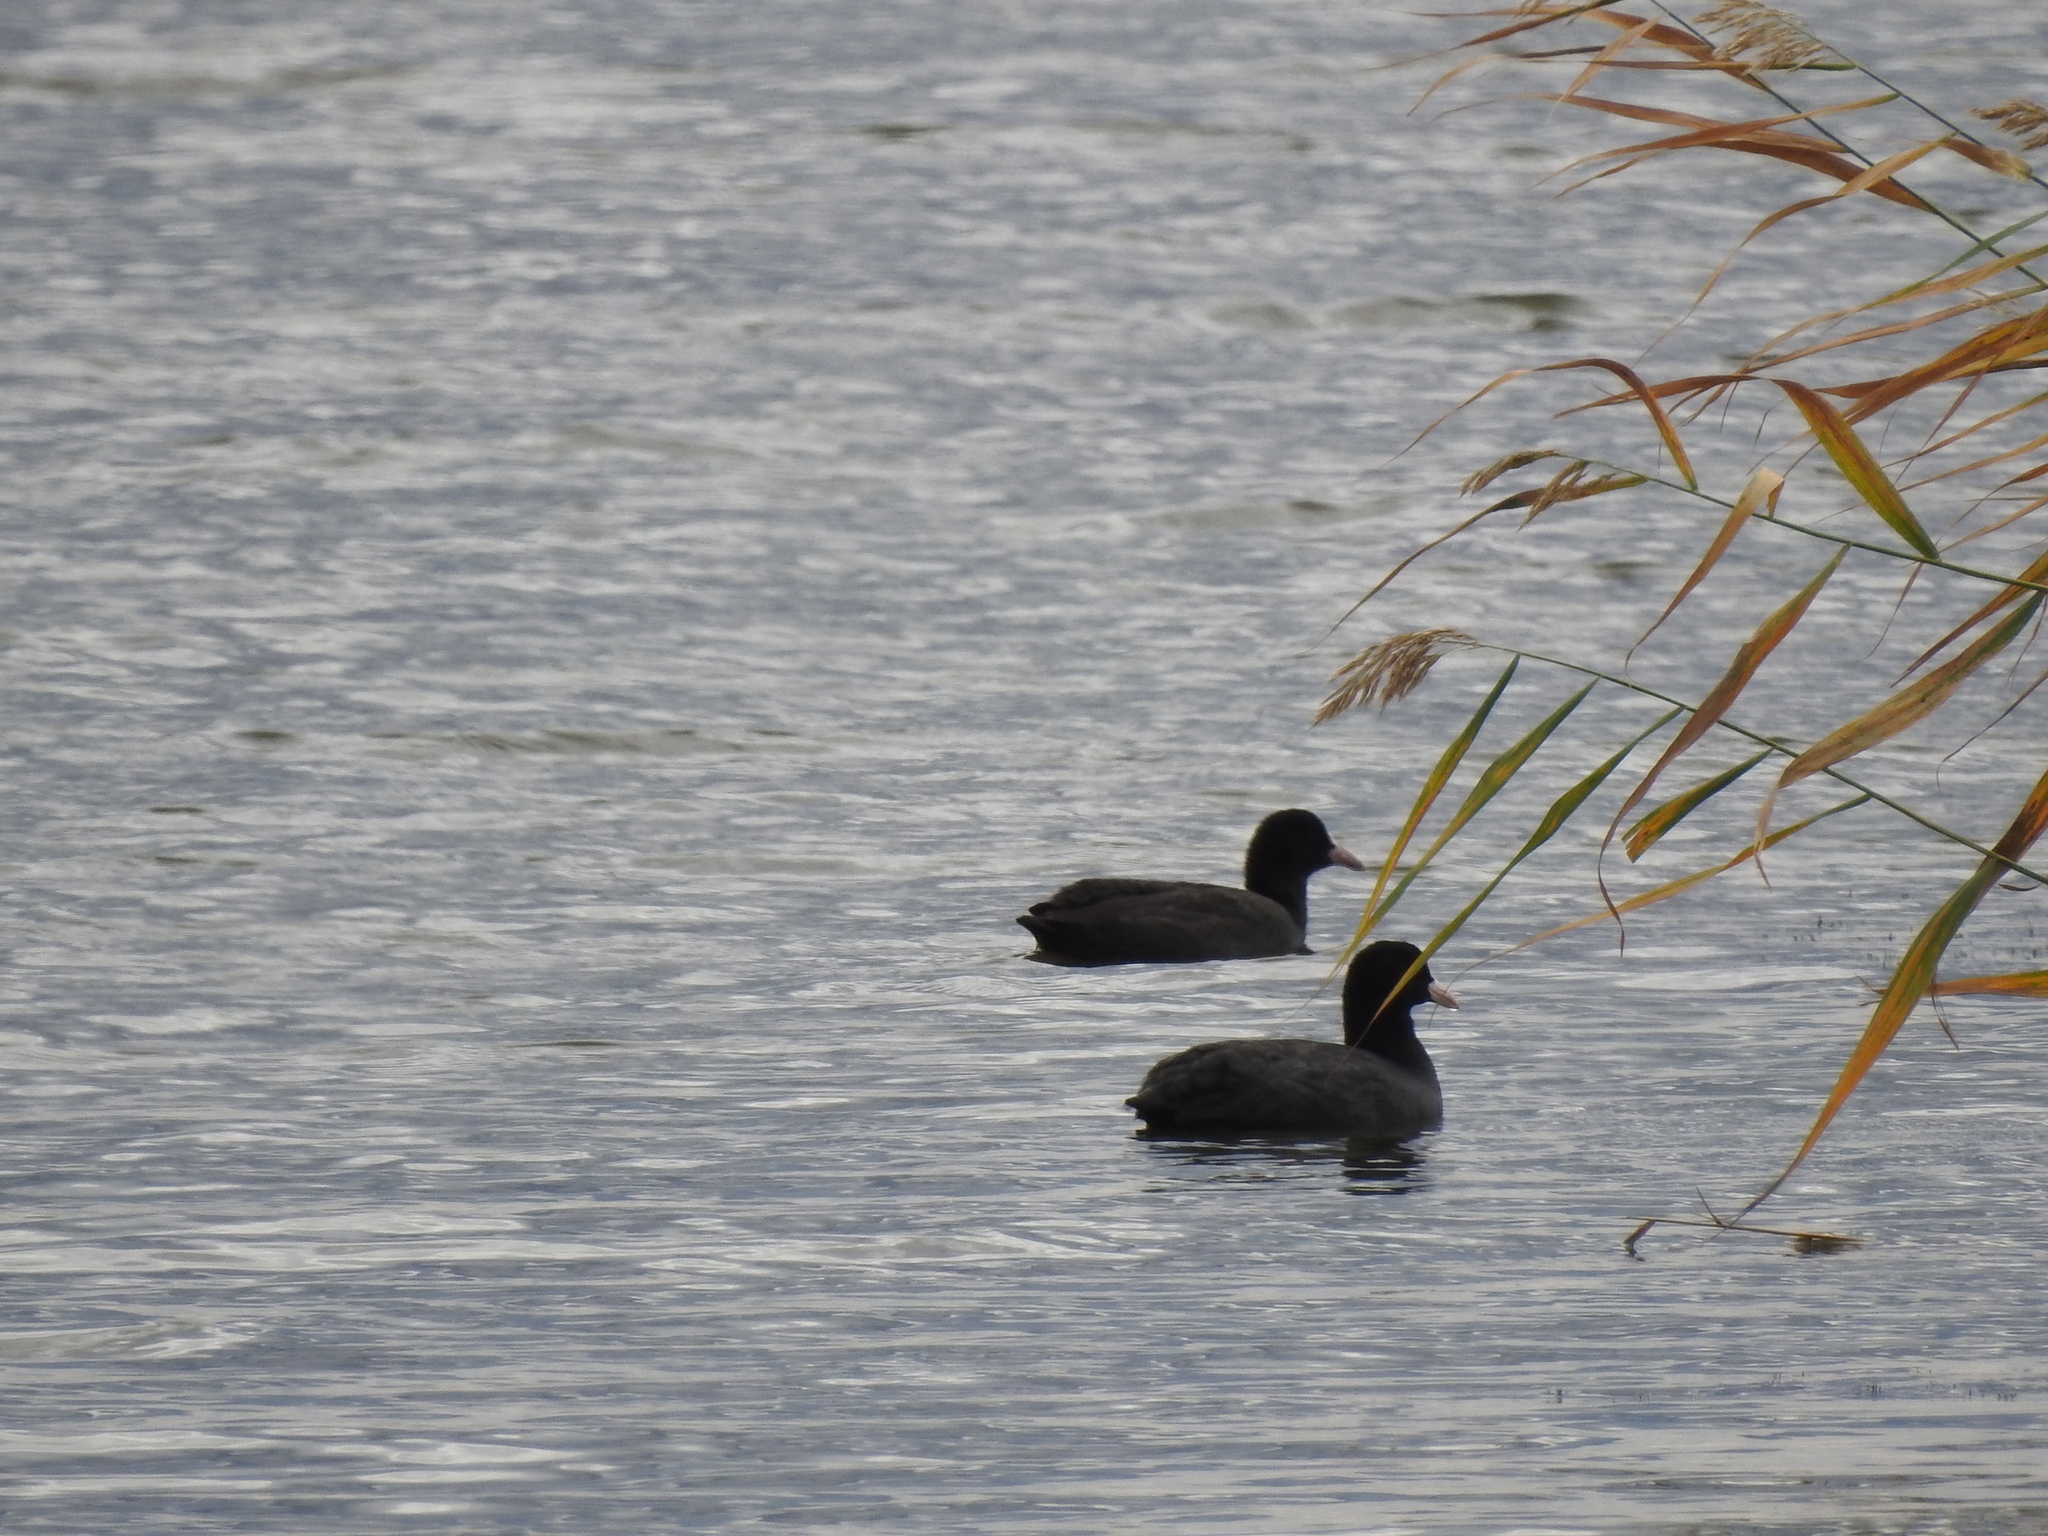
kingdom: Animalia
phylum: Chordata
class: Aves
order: Gruiformes
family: Rallidae
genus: Fulica
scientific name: Fulica atra
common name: Eurasian coot
